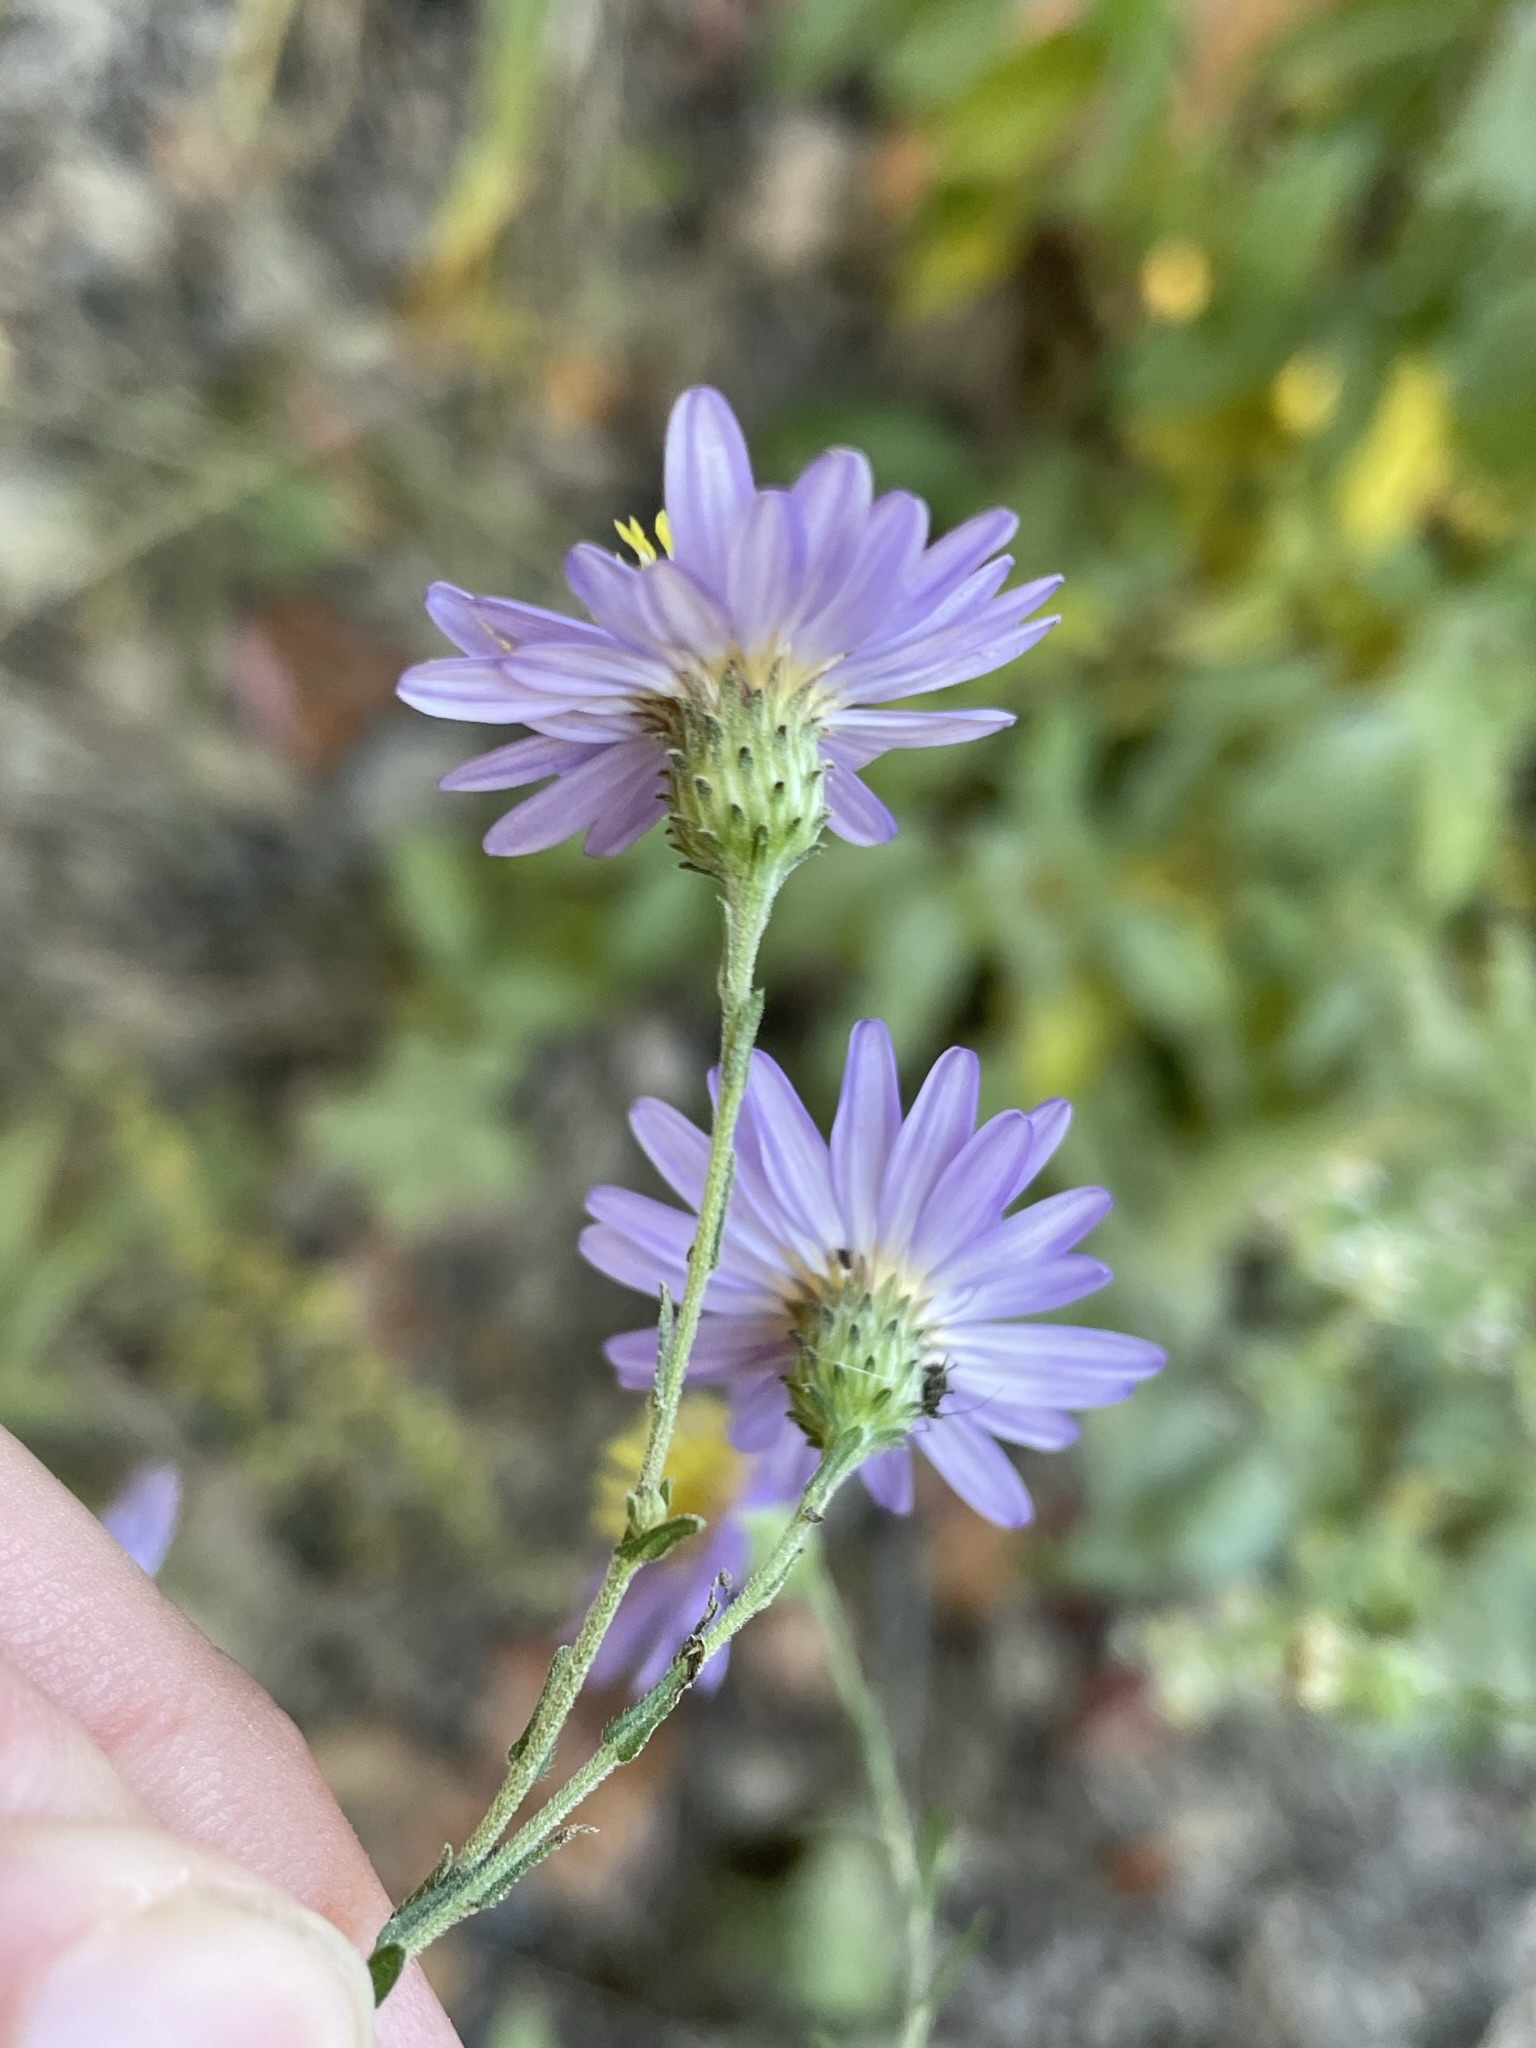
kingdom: Plantae
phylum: Tracheophyta
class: Magnoliopsida
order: Asterales
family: Asteraceae
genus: Symphyotrichum
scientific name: Symphyotrichum patens
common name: Late purple aster
